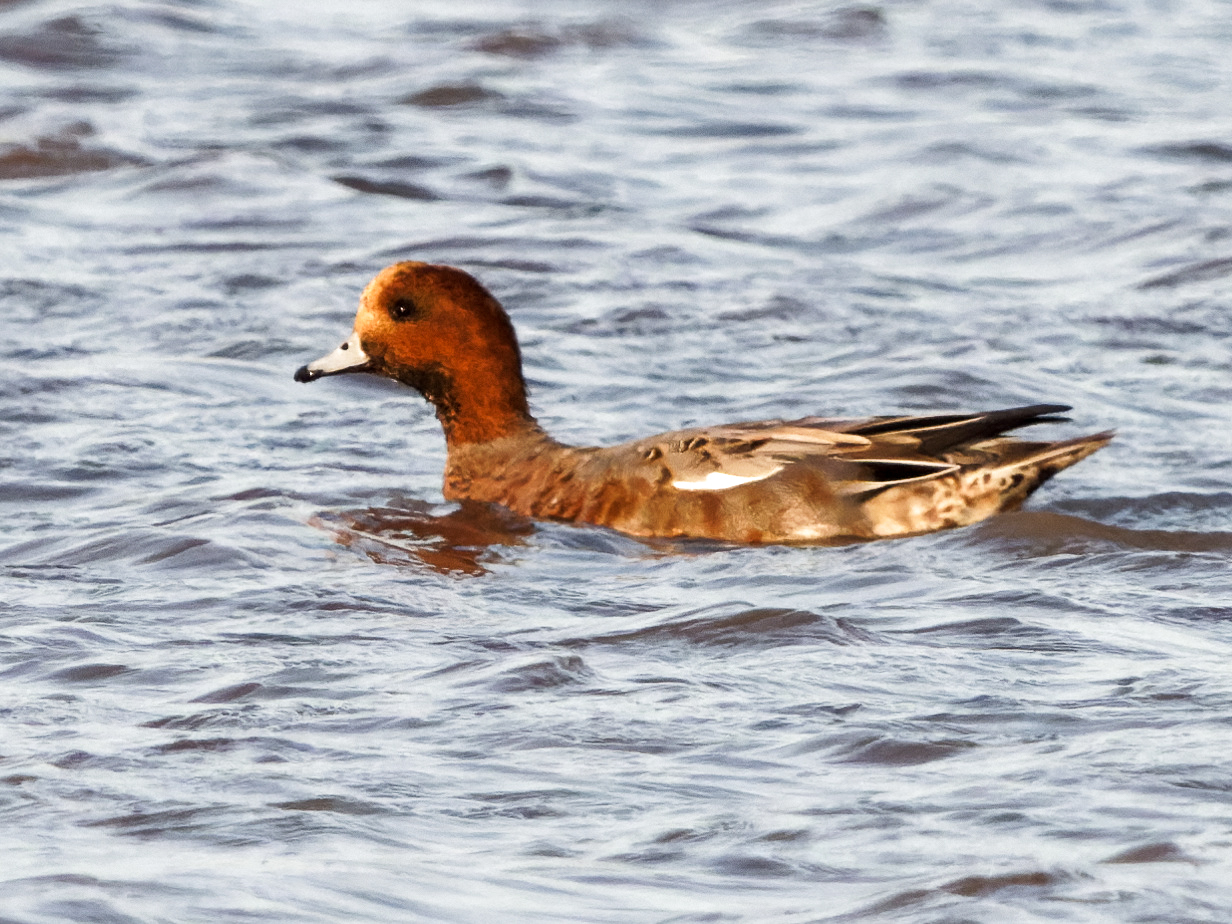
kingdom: Animalia
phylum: Chordata
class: Aves
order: Anseriformes
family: Anatidae
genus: Mareca
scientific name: Mareca penelope
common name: Eurasian wigeon
